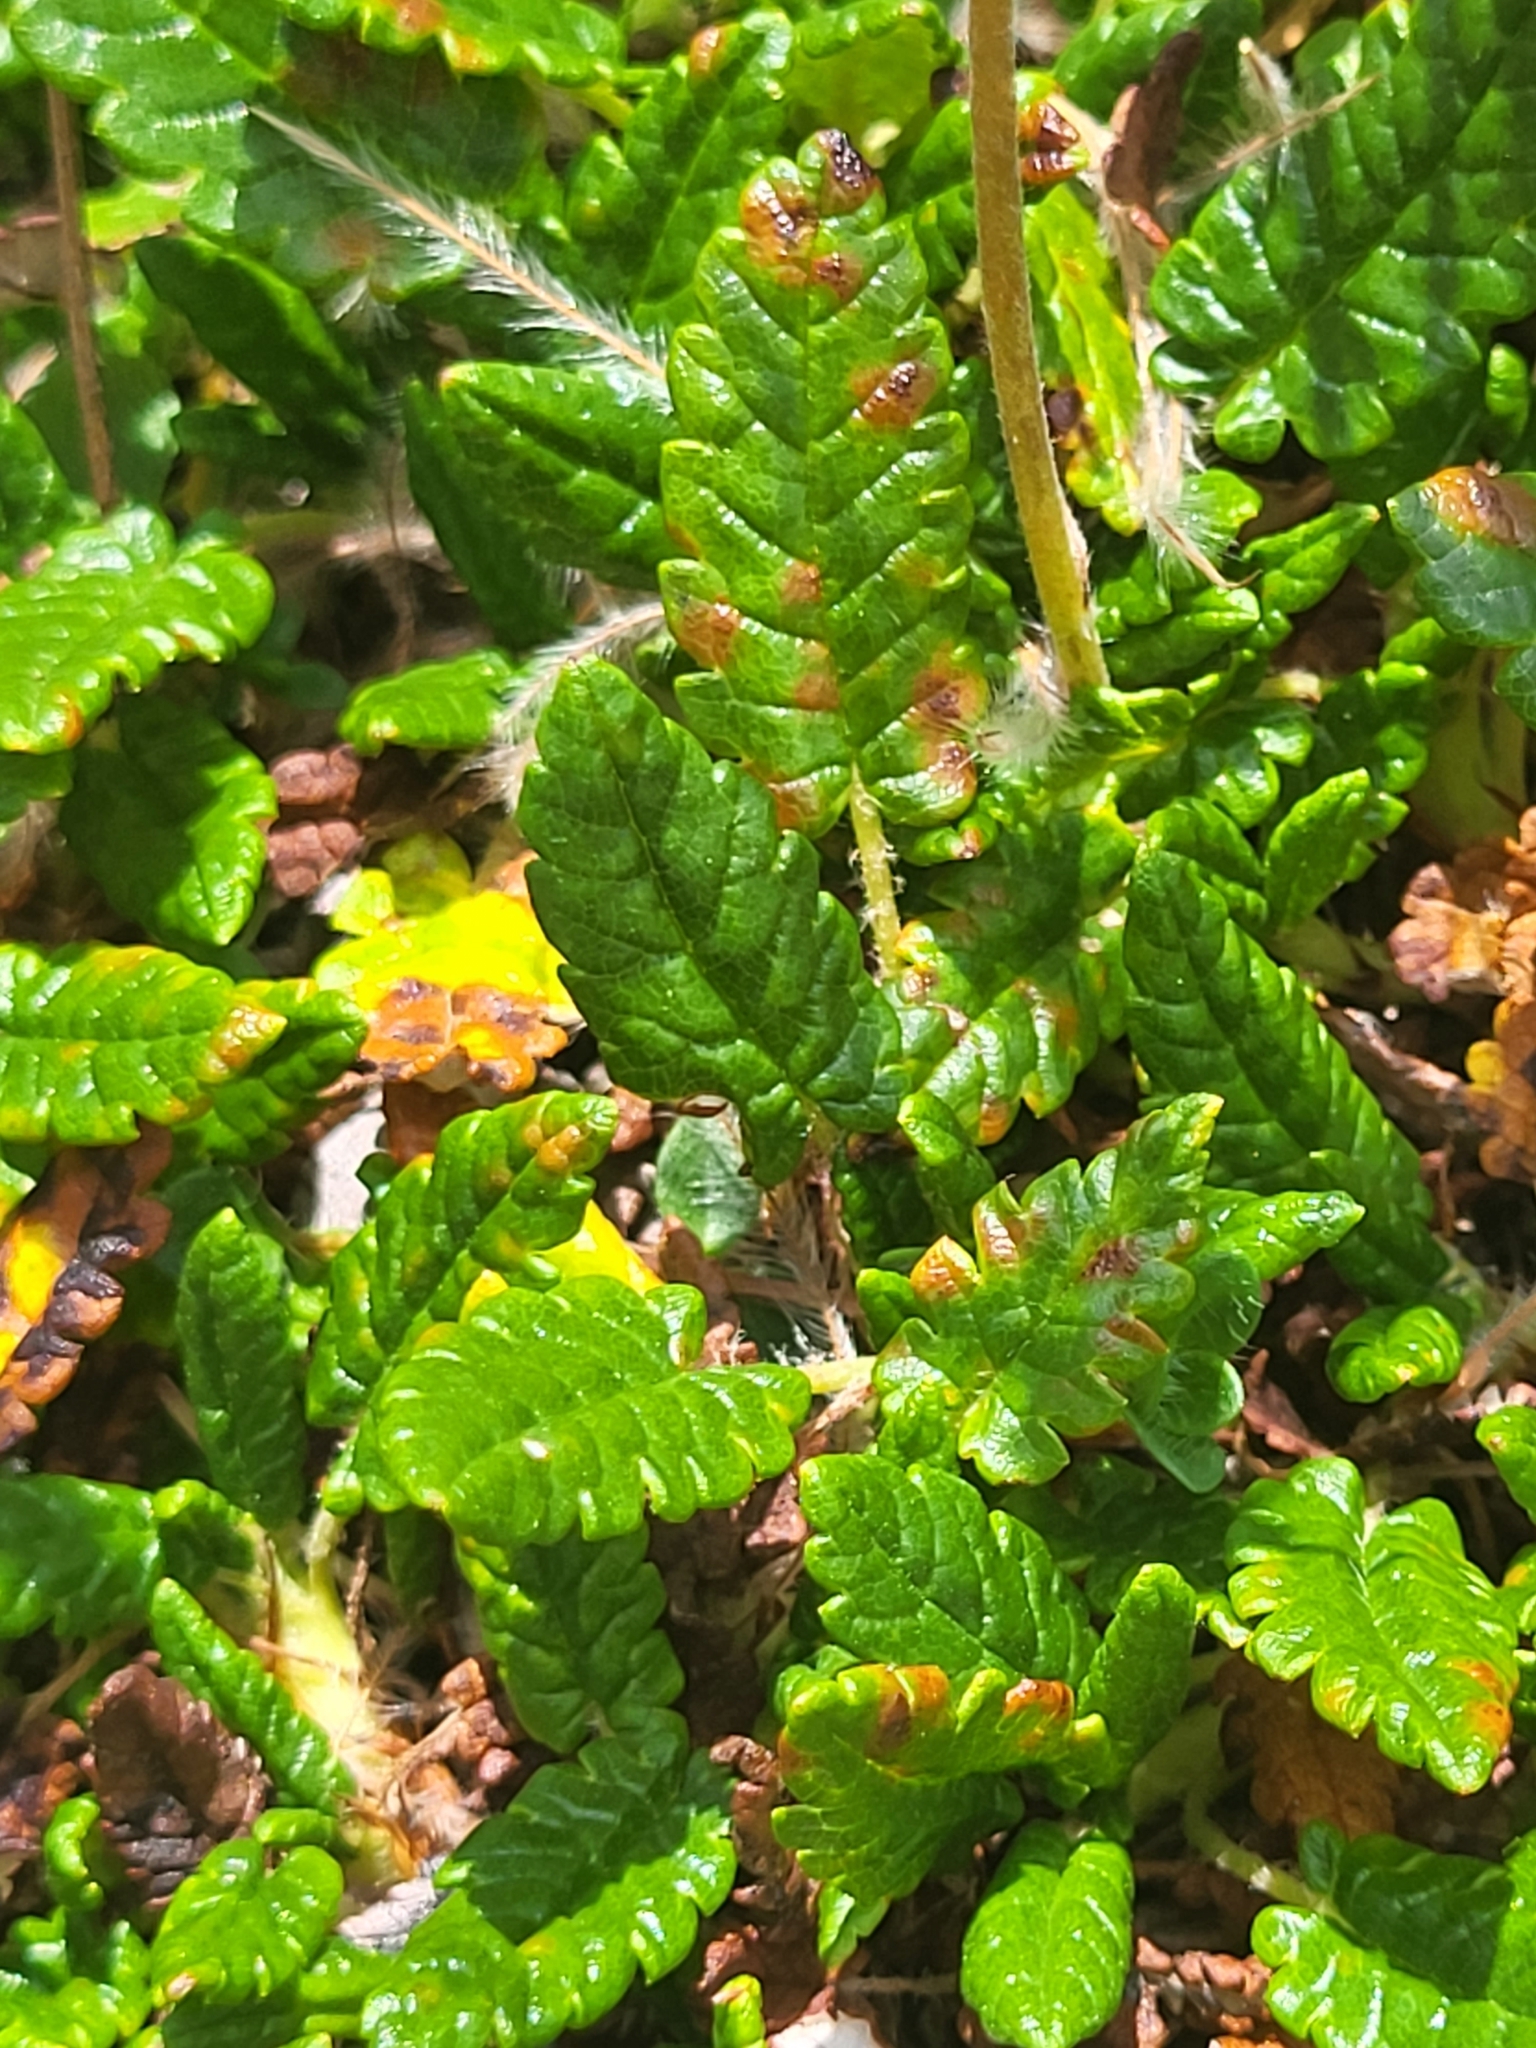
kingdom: Plantae
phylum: Tracheophyta
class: Magnoliopsida
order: Rosales
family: Rosaceae
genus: Dryas
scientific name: Dryas octopetala
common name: Eight-petal mountain-avens
